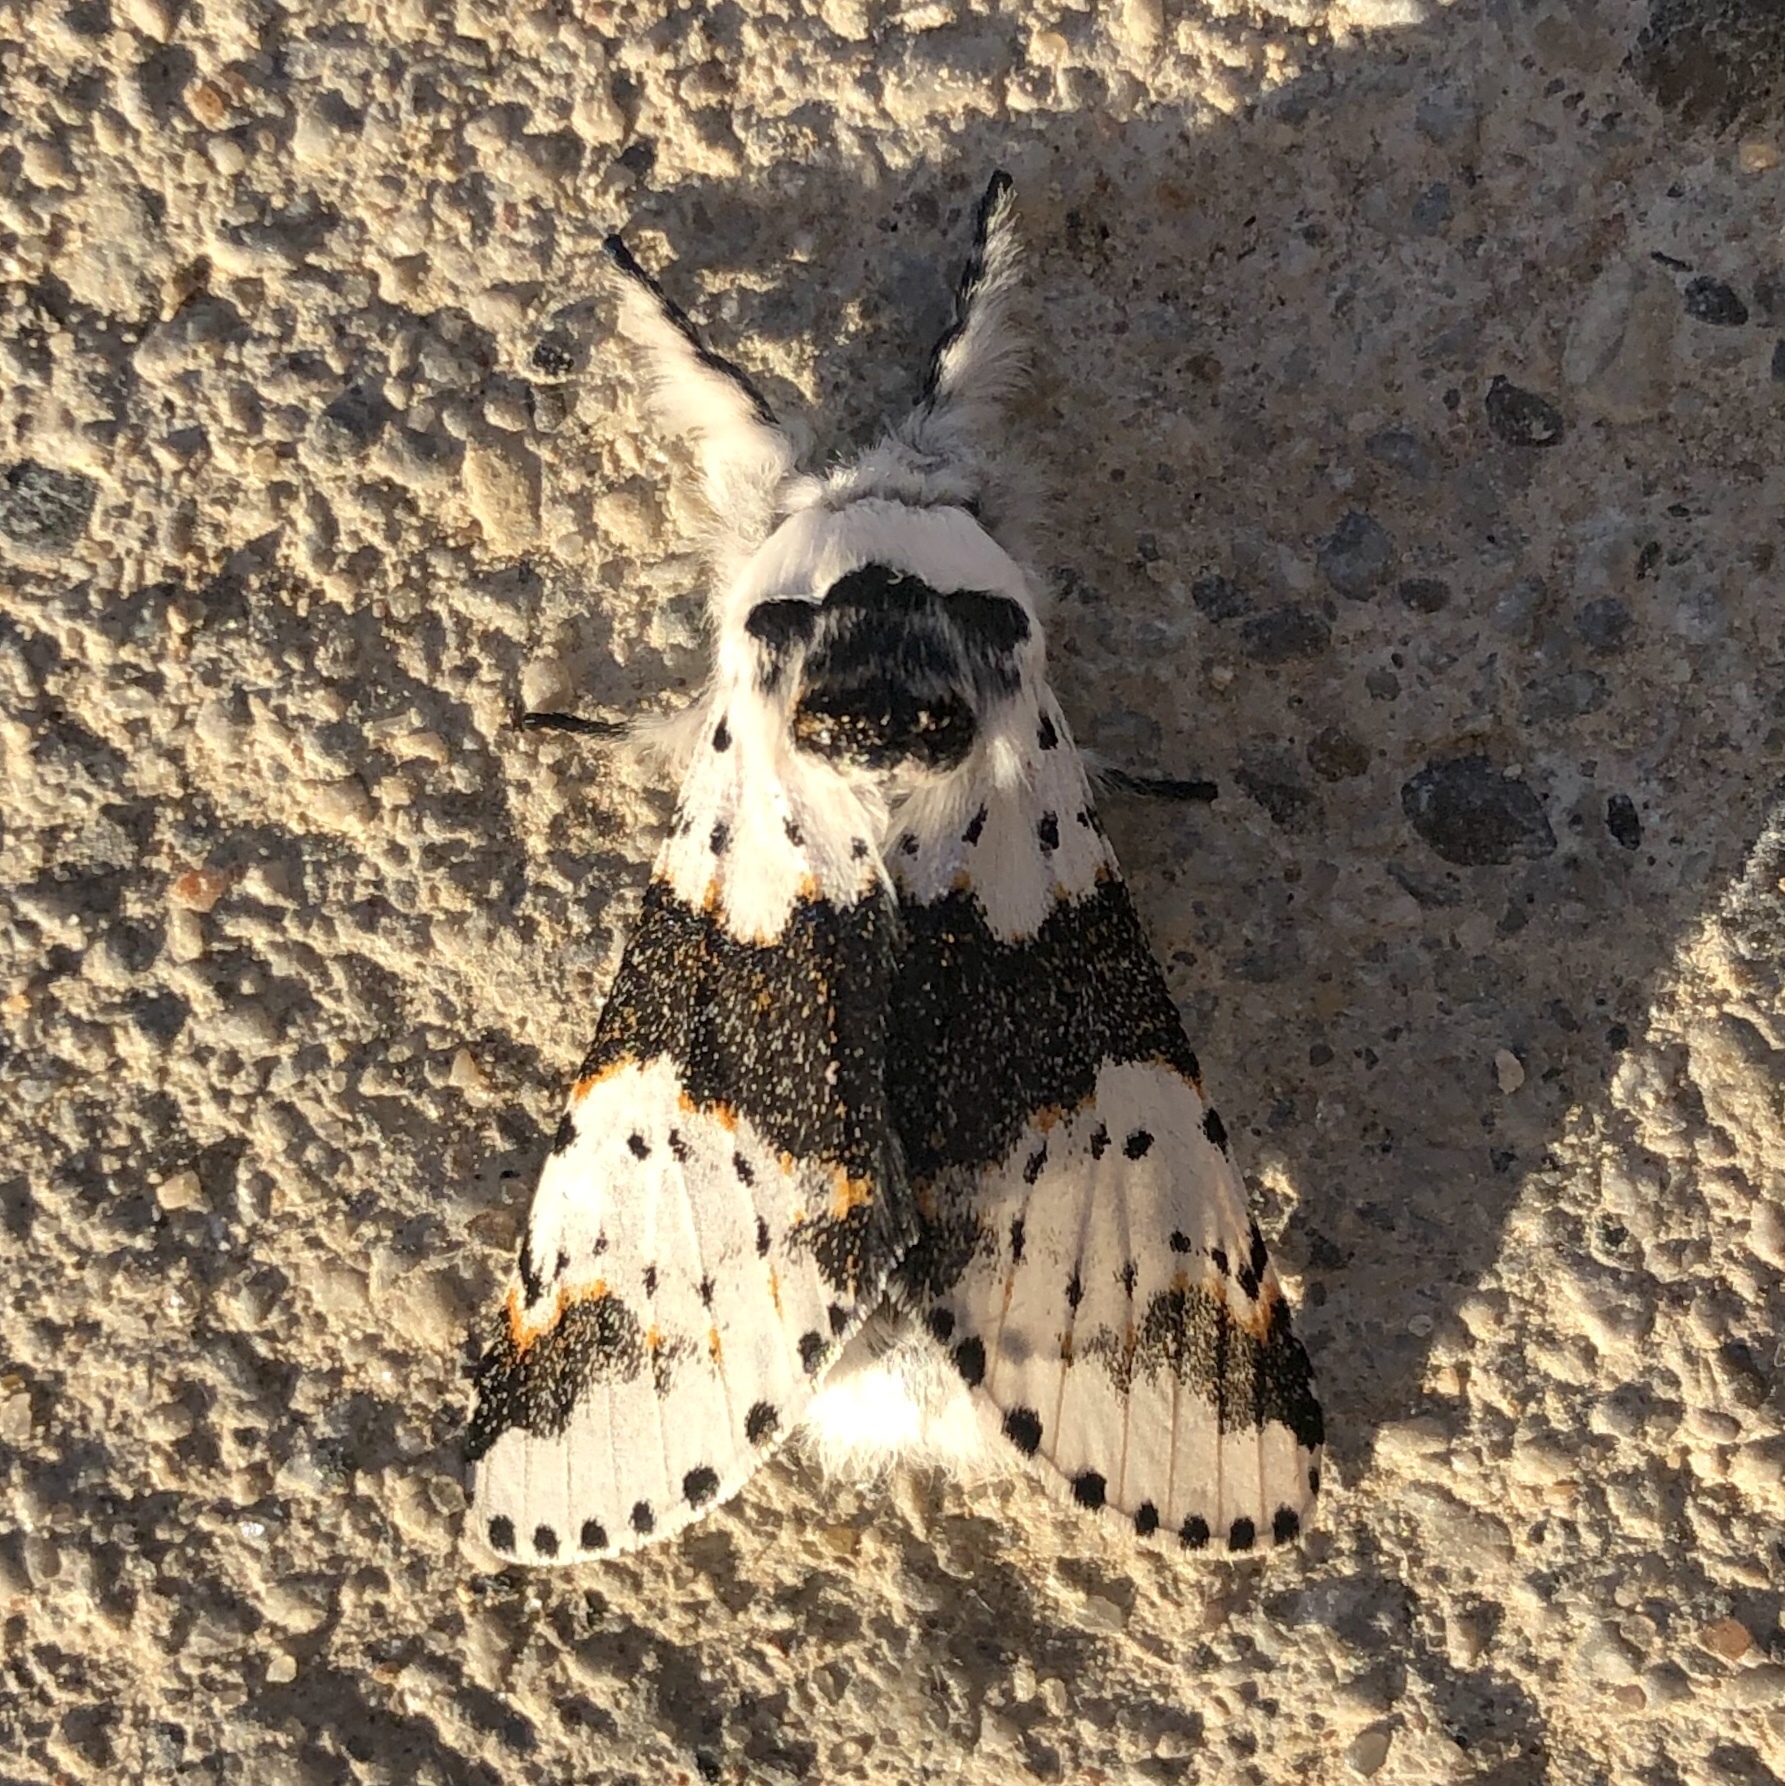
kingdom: Animalia
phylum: Arthropoda
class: Insecta
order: Lepidoptera
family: Notodontidae
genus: Furcula
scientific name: Furcula borealis
